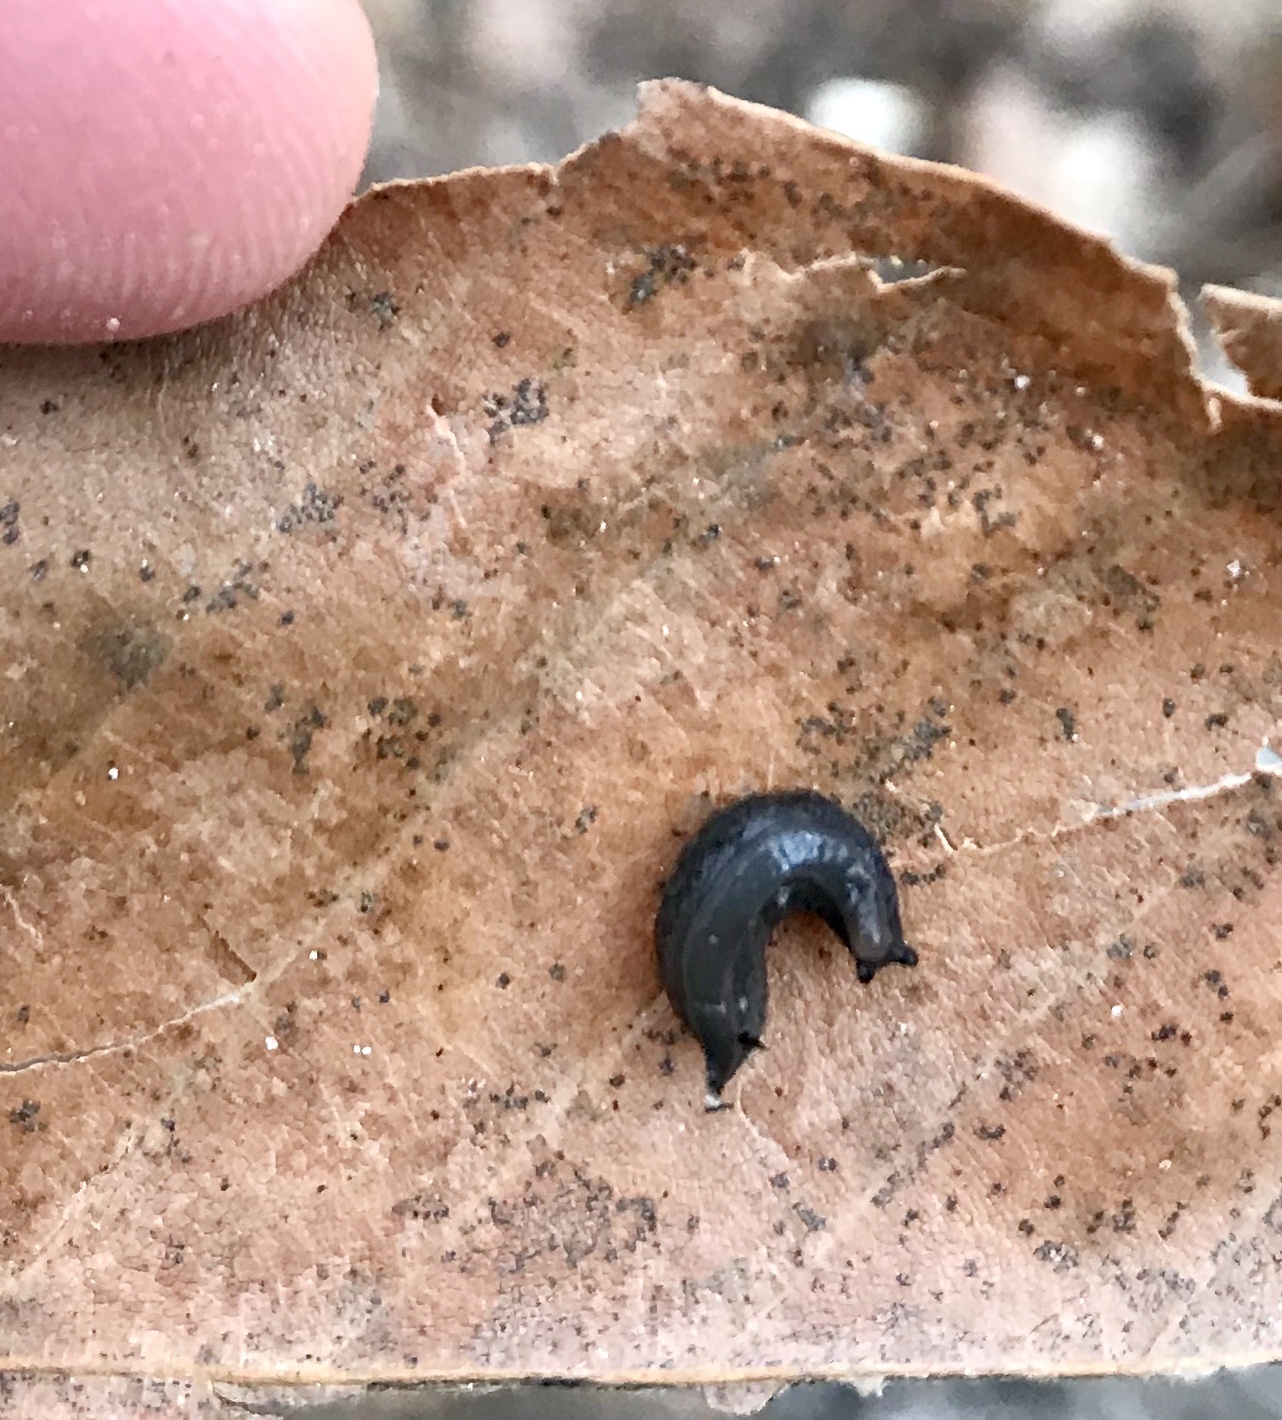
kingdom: Animalia
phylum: Mollusca
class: Gastropoda
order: Stylommatophora
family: Philomycidae
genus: Philomycus
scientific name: Philomycus carolinianus
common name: Carolina mantleslug
